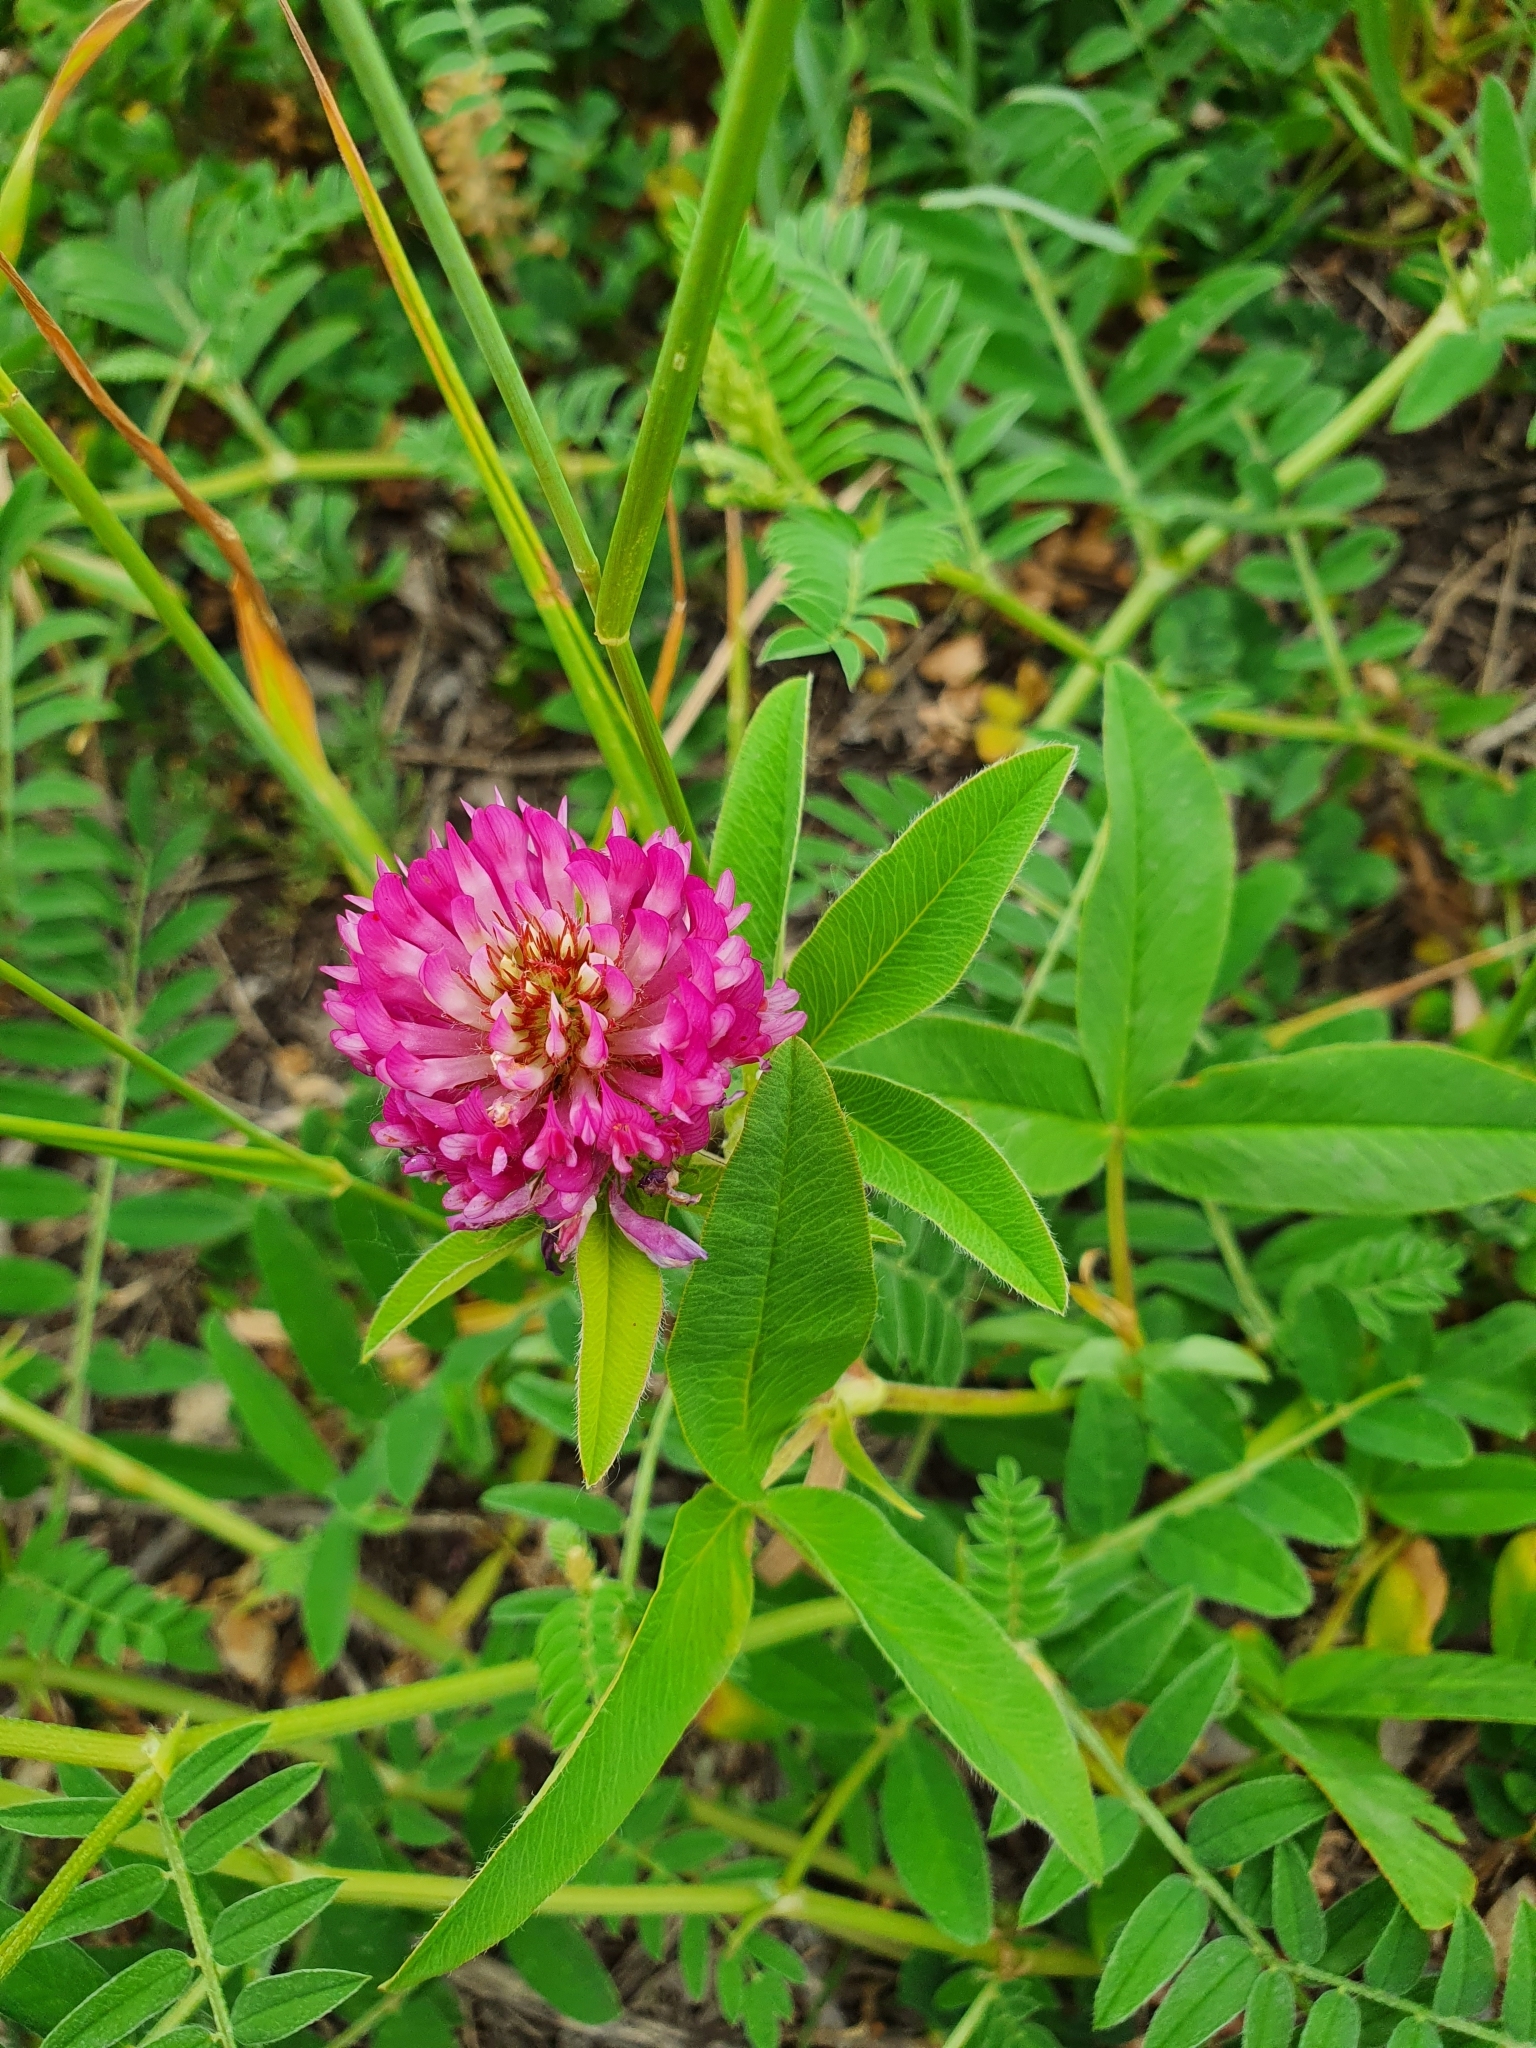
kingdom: Plantae
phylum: Tracheophyta
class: Magnoliopsida
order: Fabales
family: Fabaceae
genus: Trifolium
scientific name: Trifolium alpestre
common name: Owl-head clover
